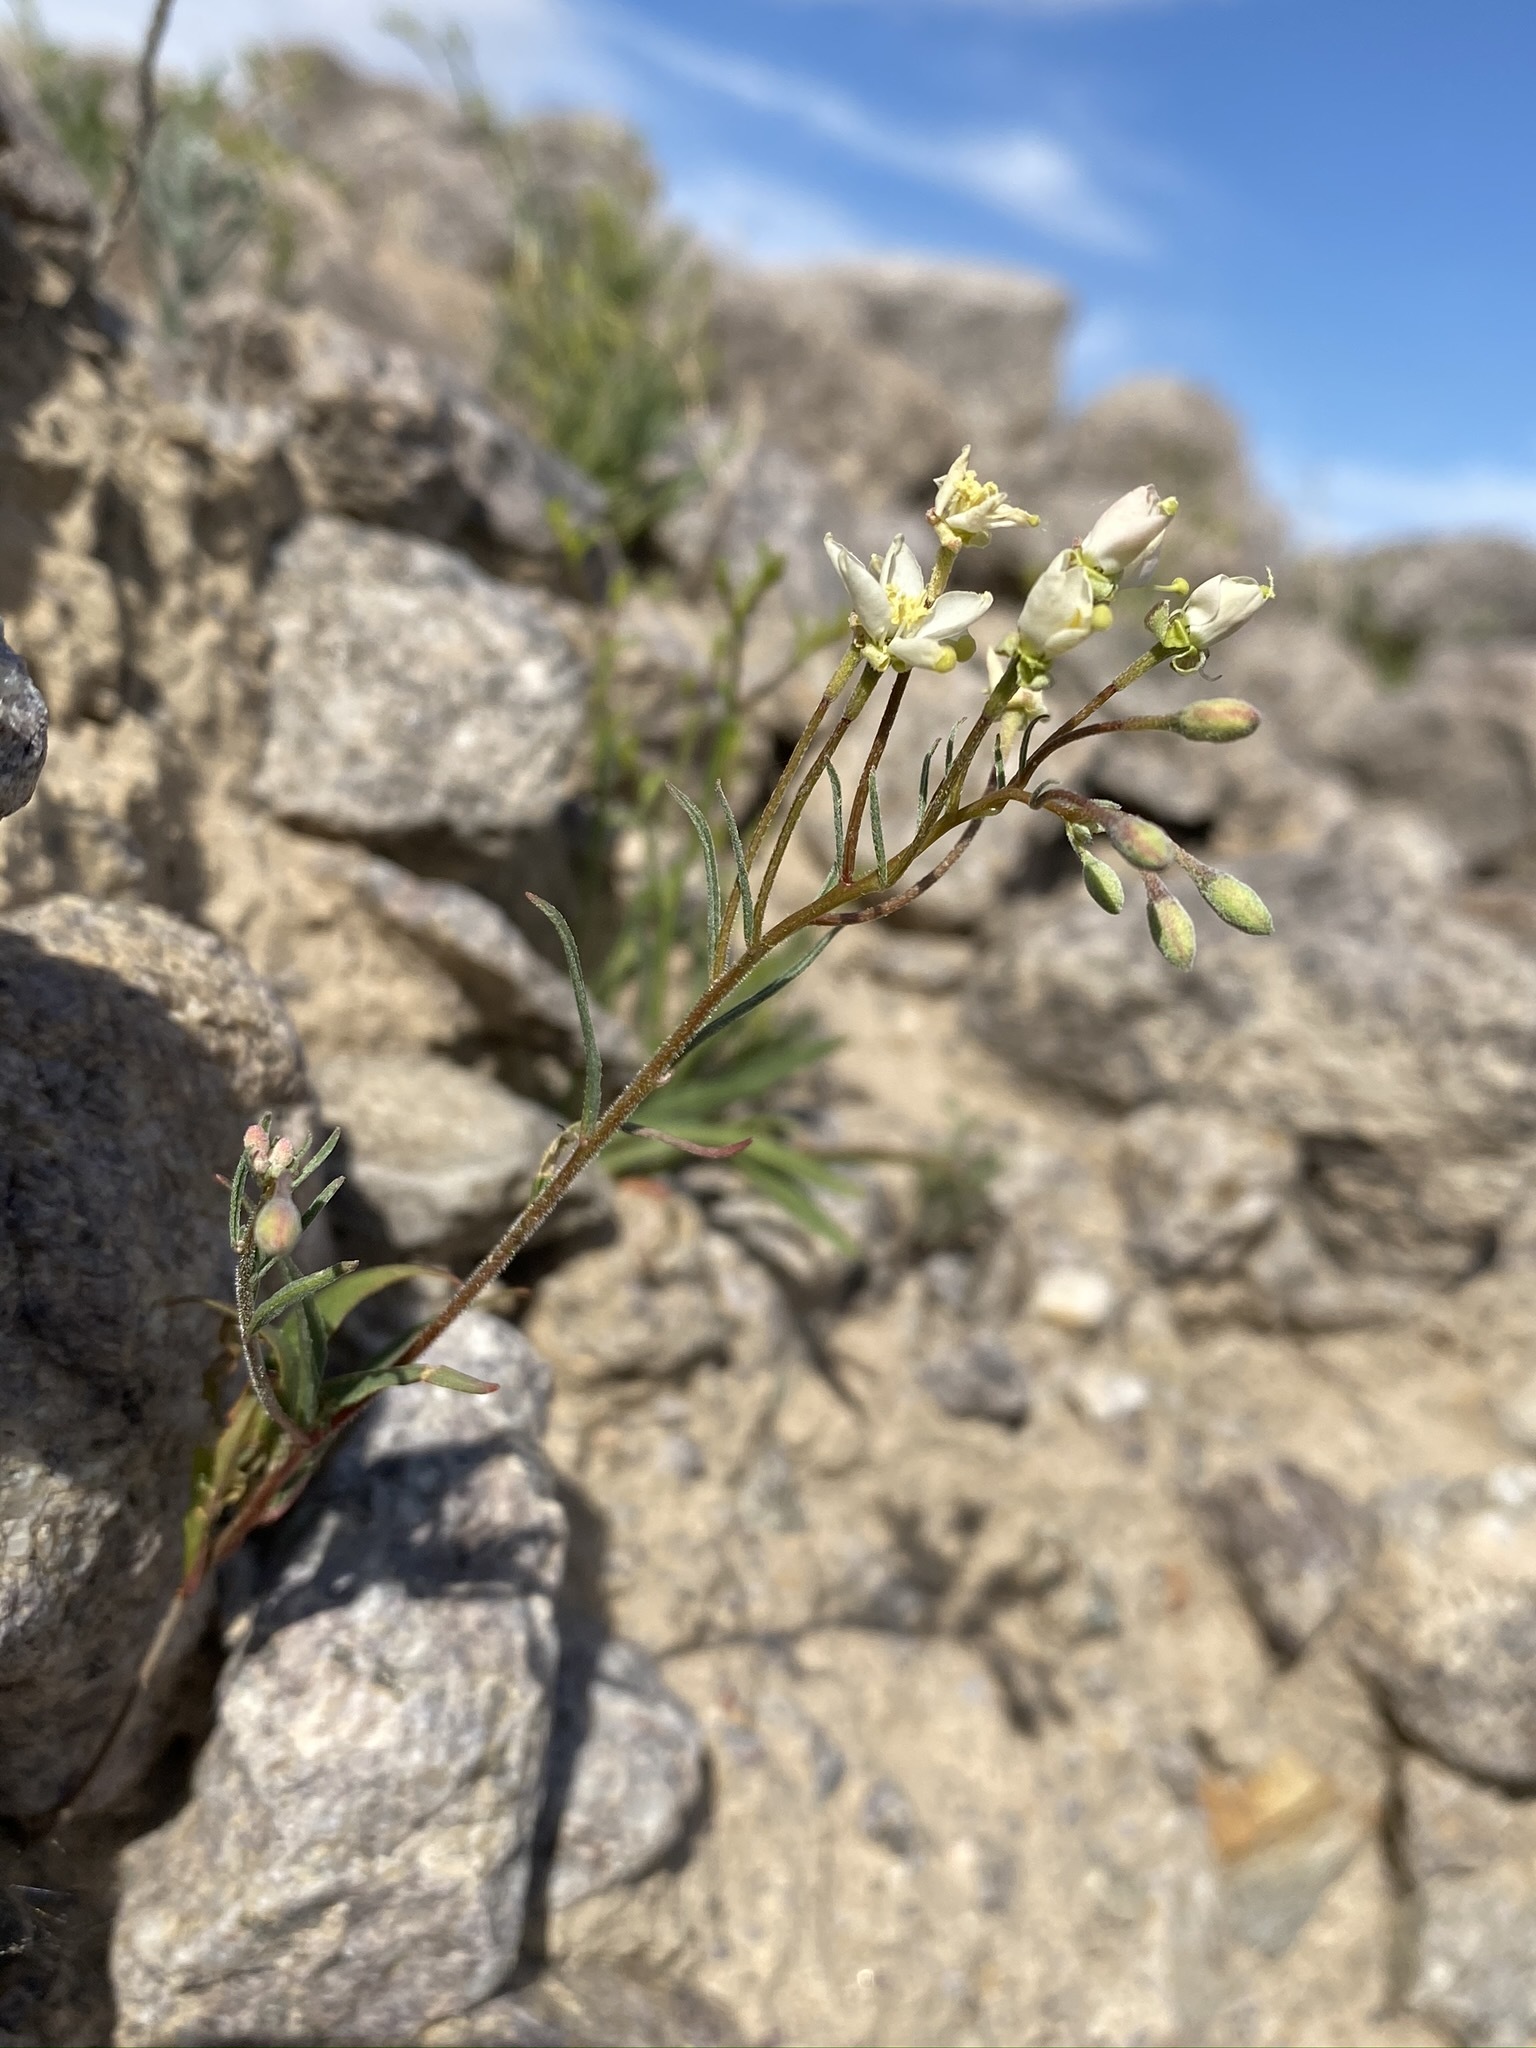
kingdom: Plantae
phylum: Tracheophyta
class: Magnoliopsida
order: Myrtales
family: Onagraceae
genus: Eremothera
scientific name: Eremothera refracta
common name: Narrowleaf suncup
